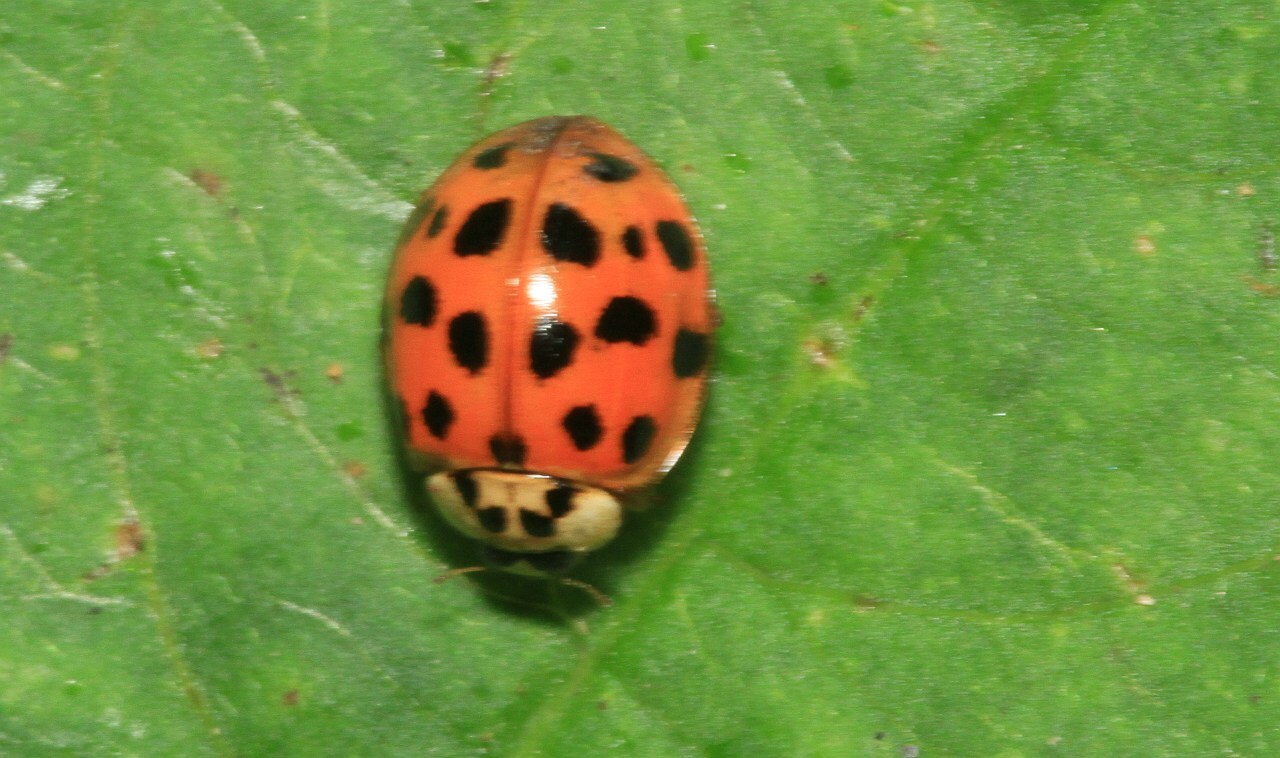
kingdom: Animalia
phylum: Arthropoda
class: Insecta
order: Coleoptera
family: Coccinellidae
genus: Harmonia
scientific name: Harmonia axyridis
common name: Harlequin ladybird
